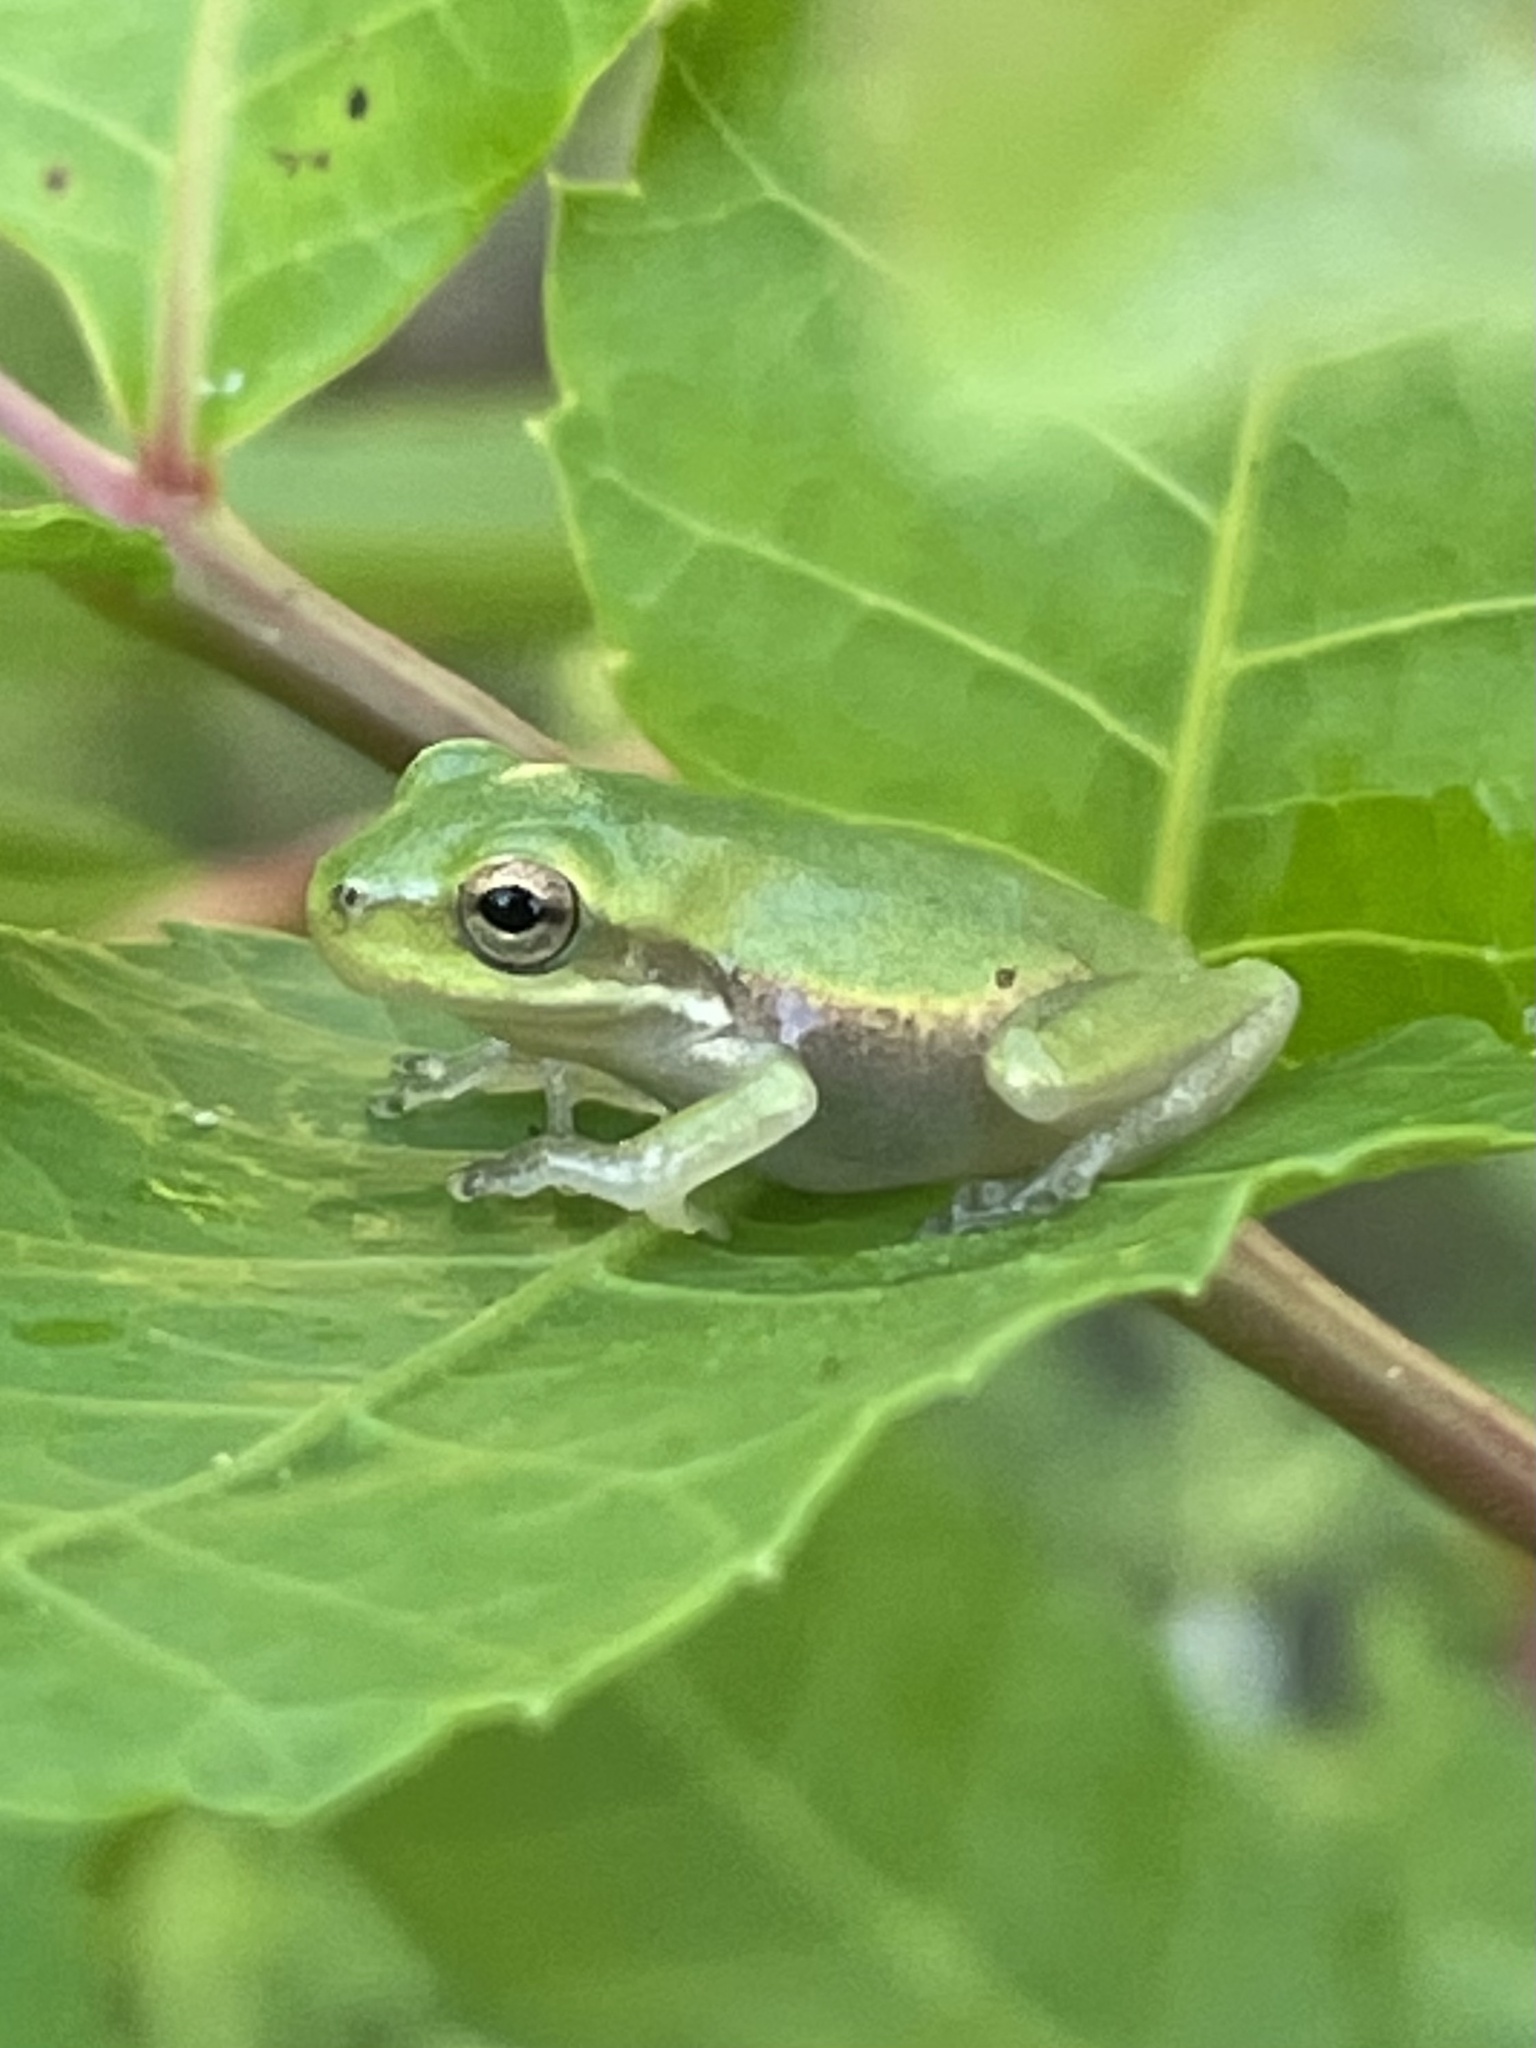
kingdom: Animalia
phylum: Chordata
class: Amphibia
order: Anura
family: Hylidae
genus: Dryophytes
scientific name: Dryophytes squirellus
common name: Squirrel treefrog
